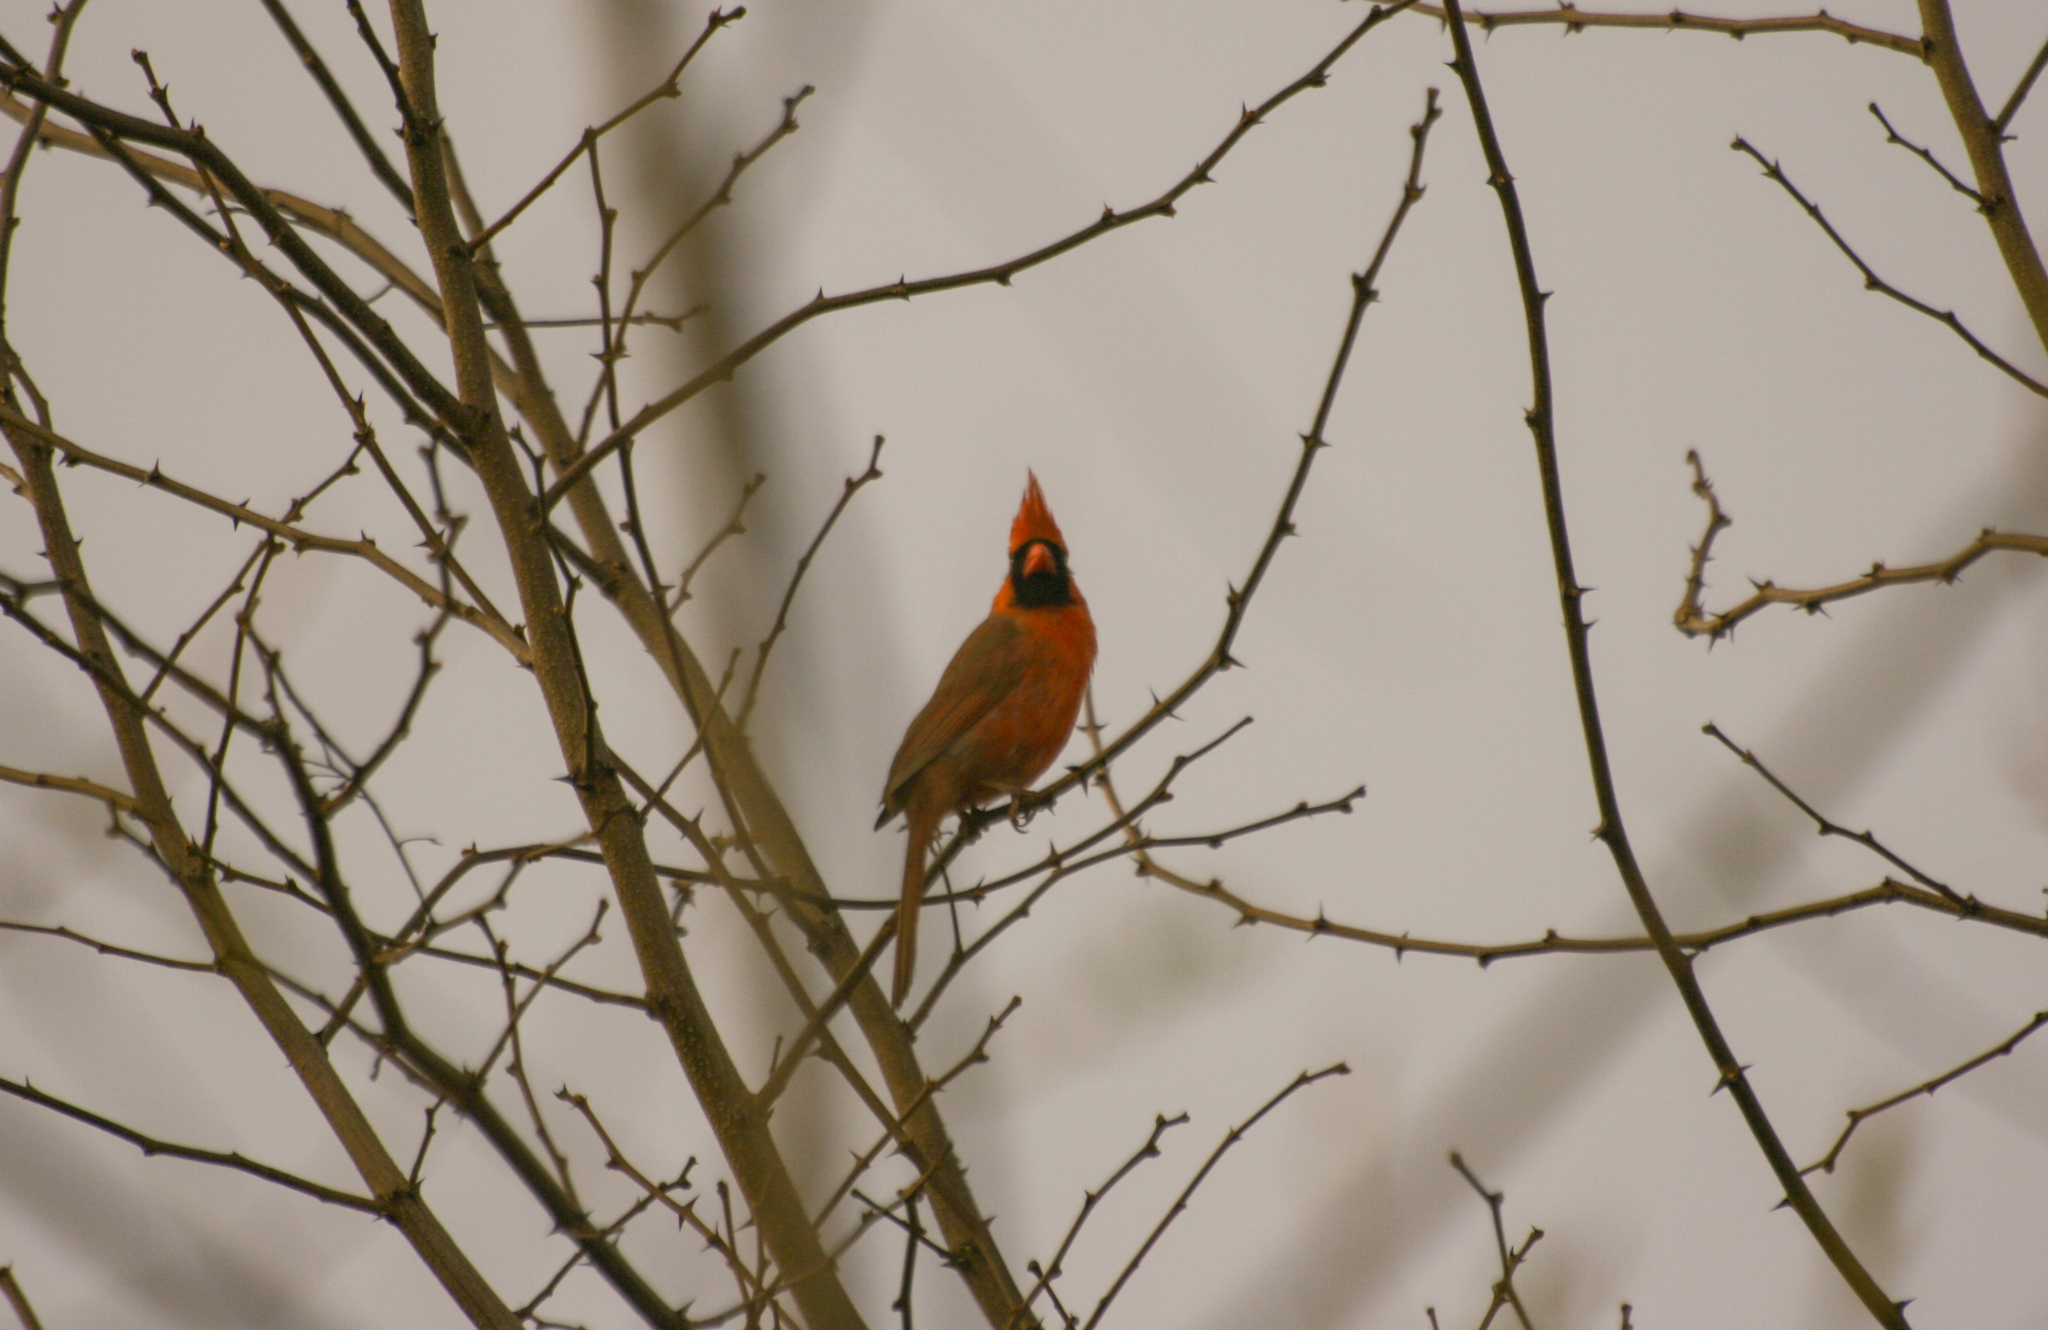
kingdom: Animalia
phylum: Chordata
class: Aves
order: Passeriformes
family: Cardinalidae
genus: Cardinalis
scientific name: Cardinalis cardinalis
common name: Northern cardinal
